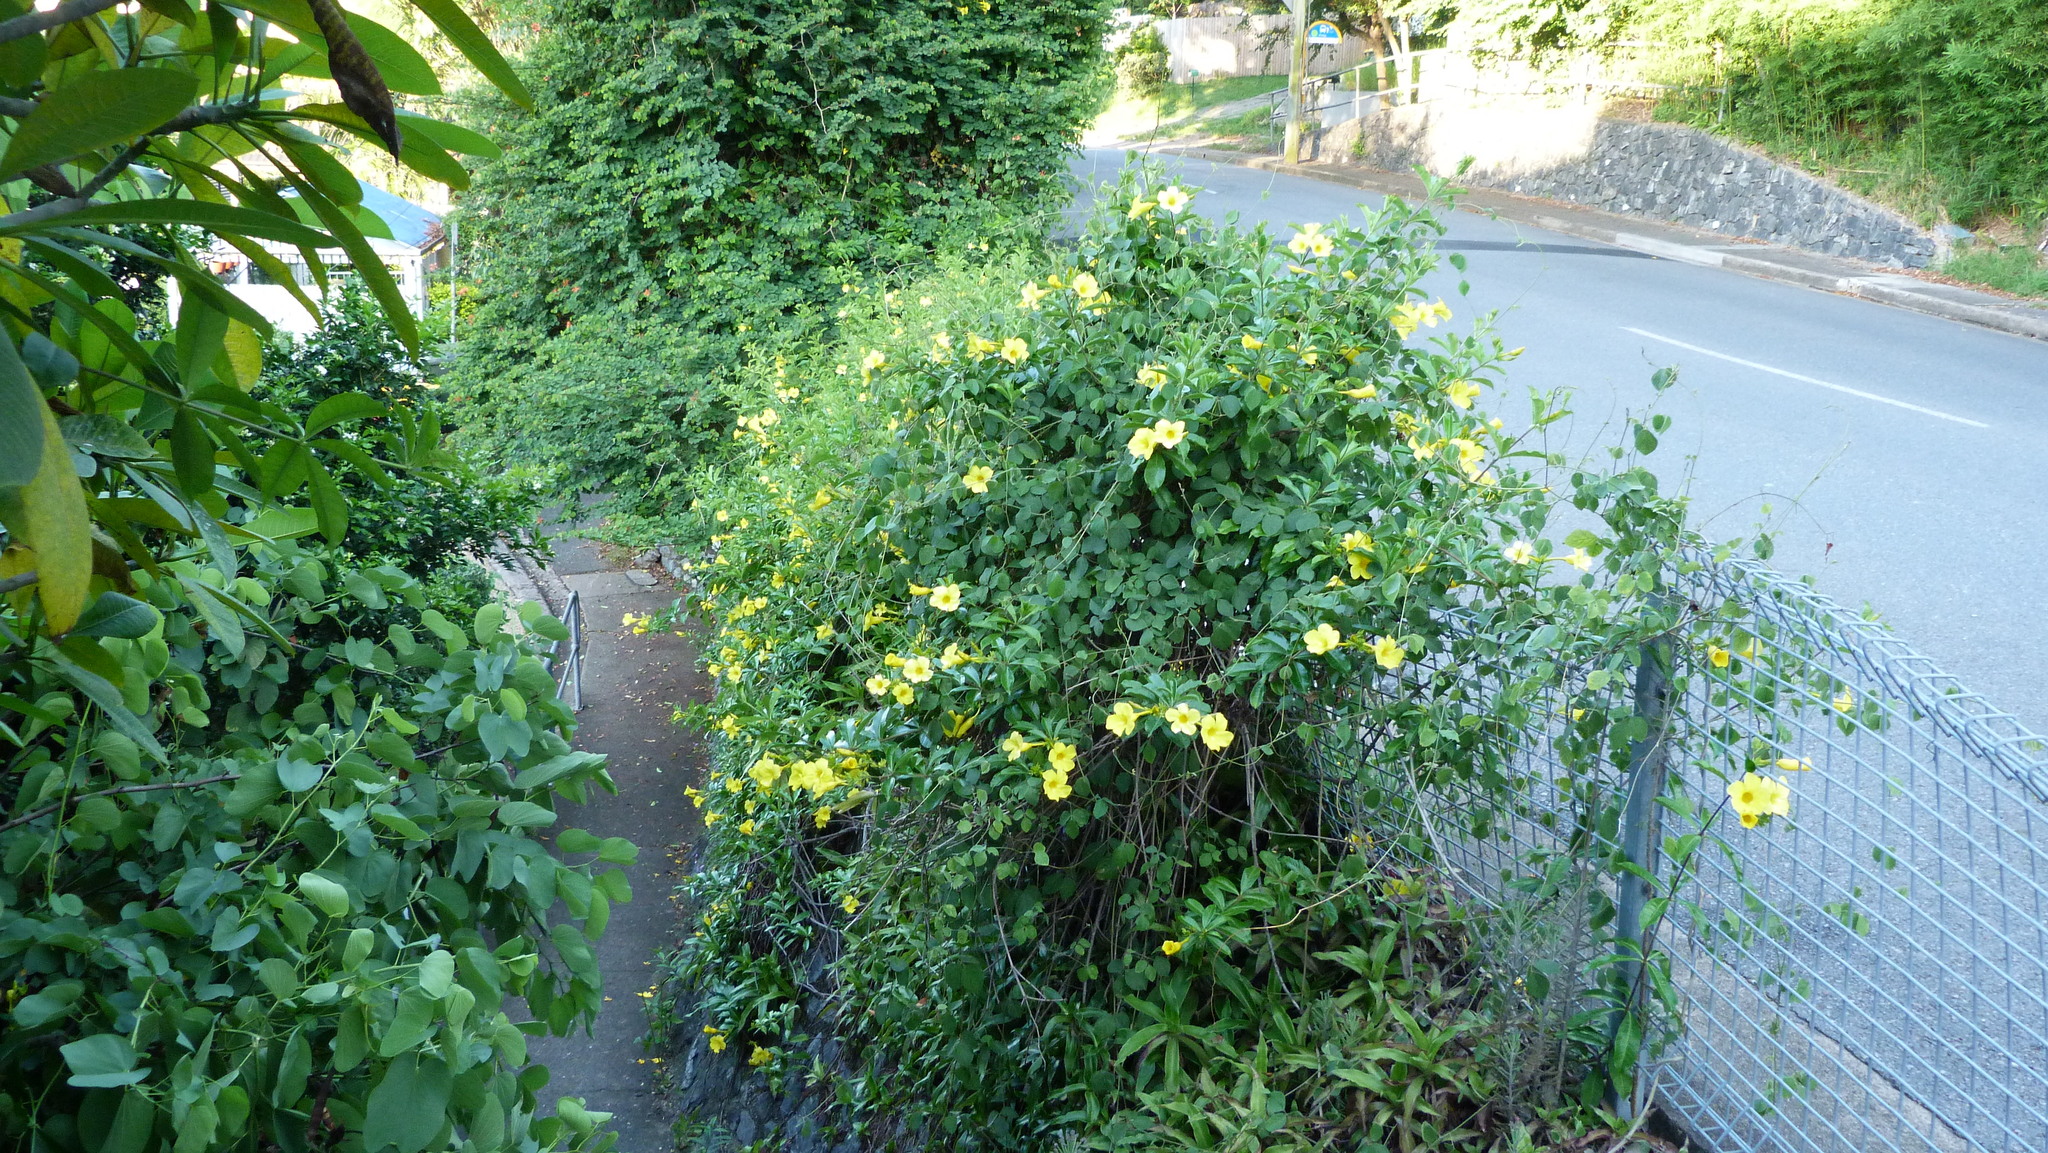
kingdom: Plantae
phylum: Tracheophyta
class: Magnoliopsida
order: Gentianales
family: Apocynaceae
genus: Allamanda
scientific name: Allamanda cathartica
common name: Golden trumpet
